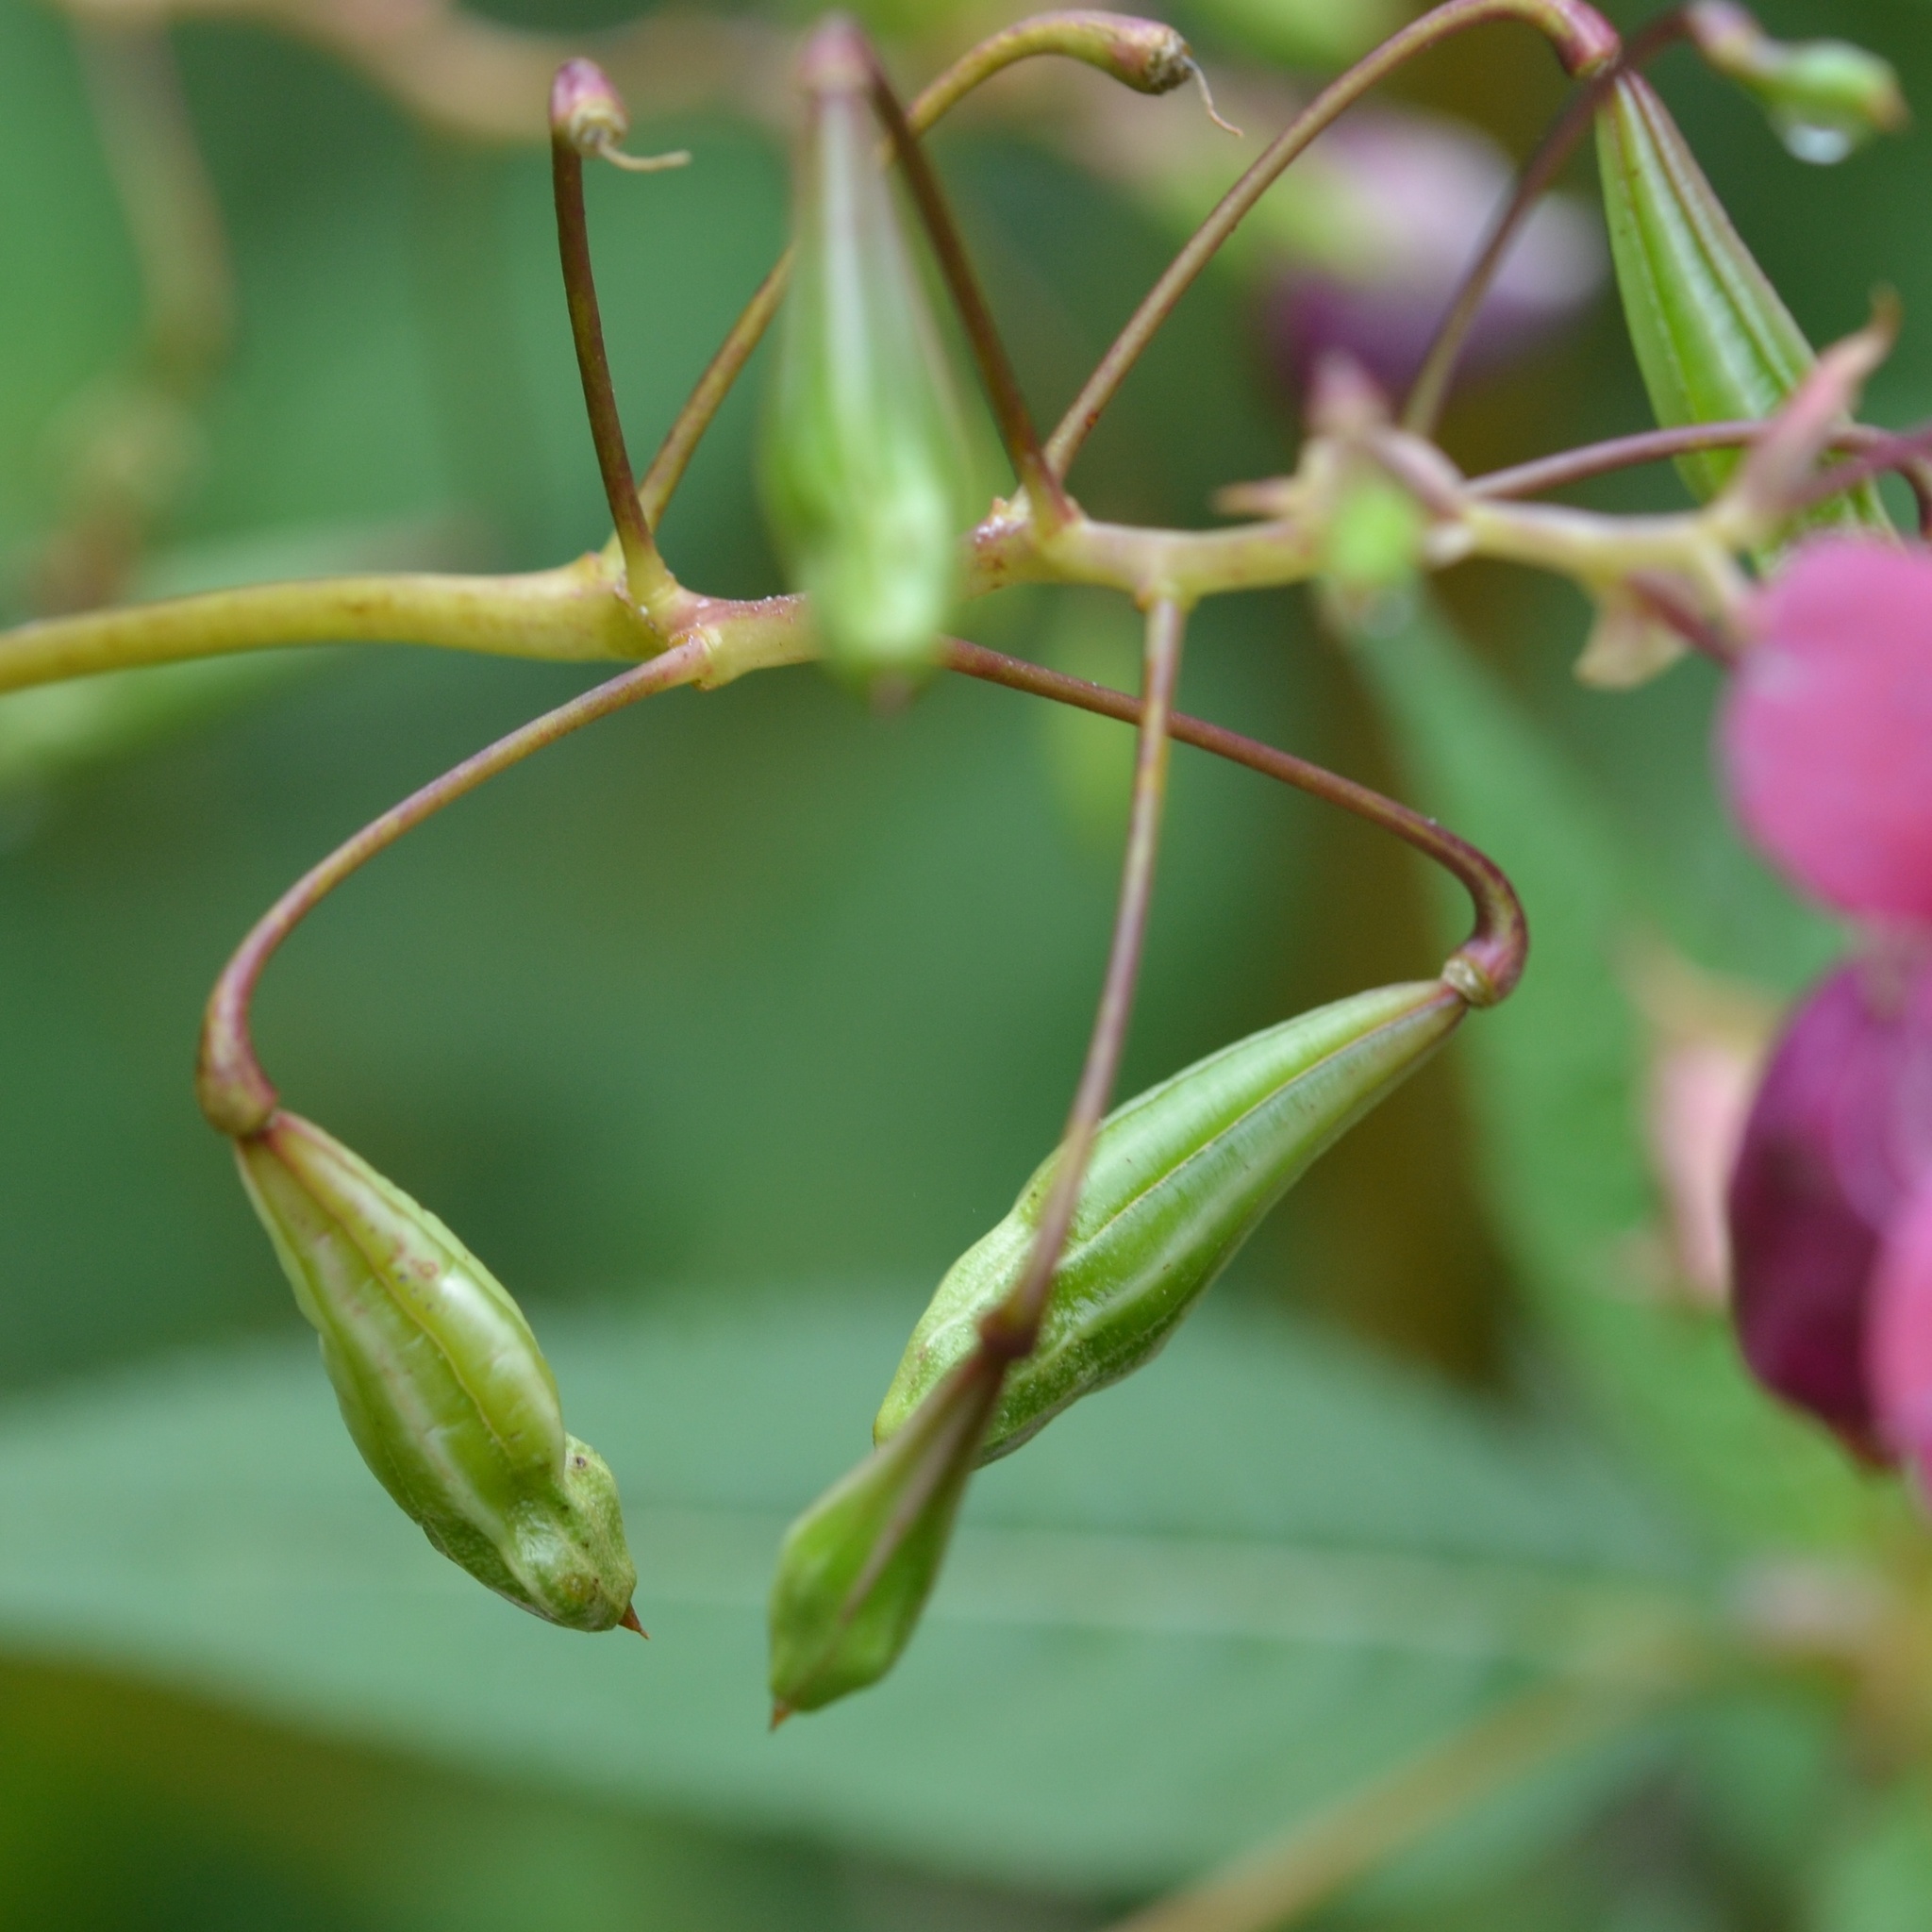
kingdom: Plantae
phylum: Tracheophyta
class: Magnoliopsida
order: Ericales
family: Balsaminaceae
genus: Impatiens
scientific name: Impatiens glandulifera
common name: Himalayan balsam
